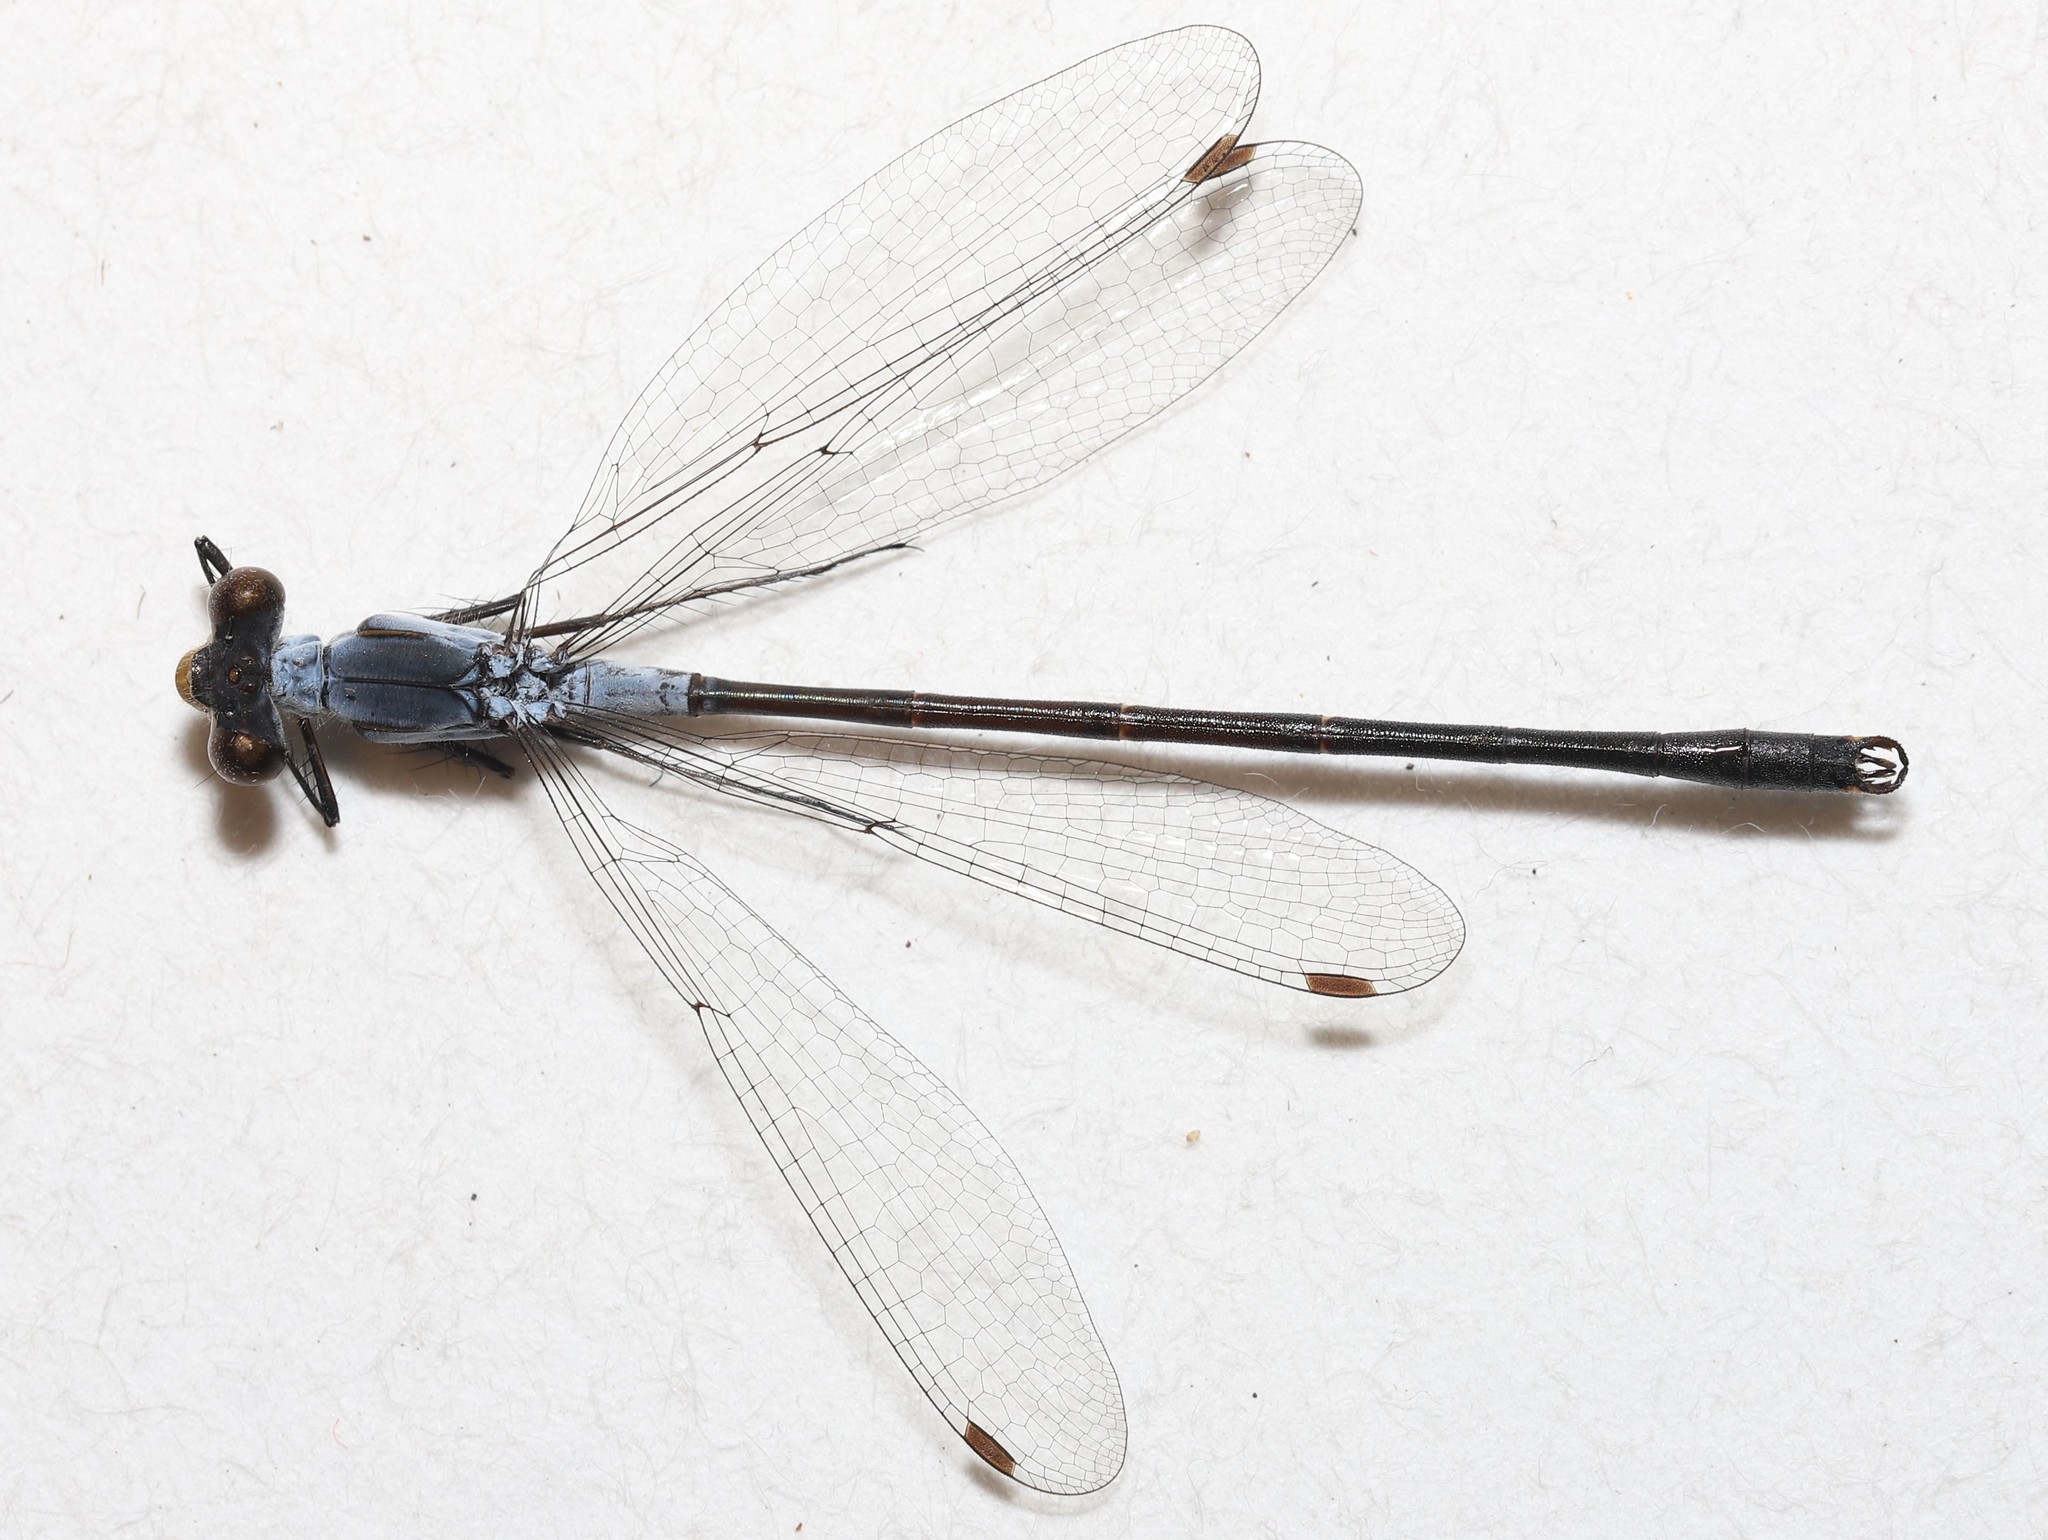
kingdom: Animalia
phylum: Arthropoda
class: Insecta
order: Odonata
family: Lestidae
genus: Lestes
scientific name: Lestes disjunctus
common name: Northern spreadwing
